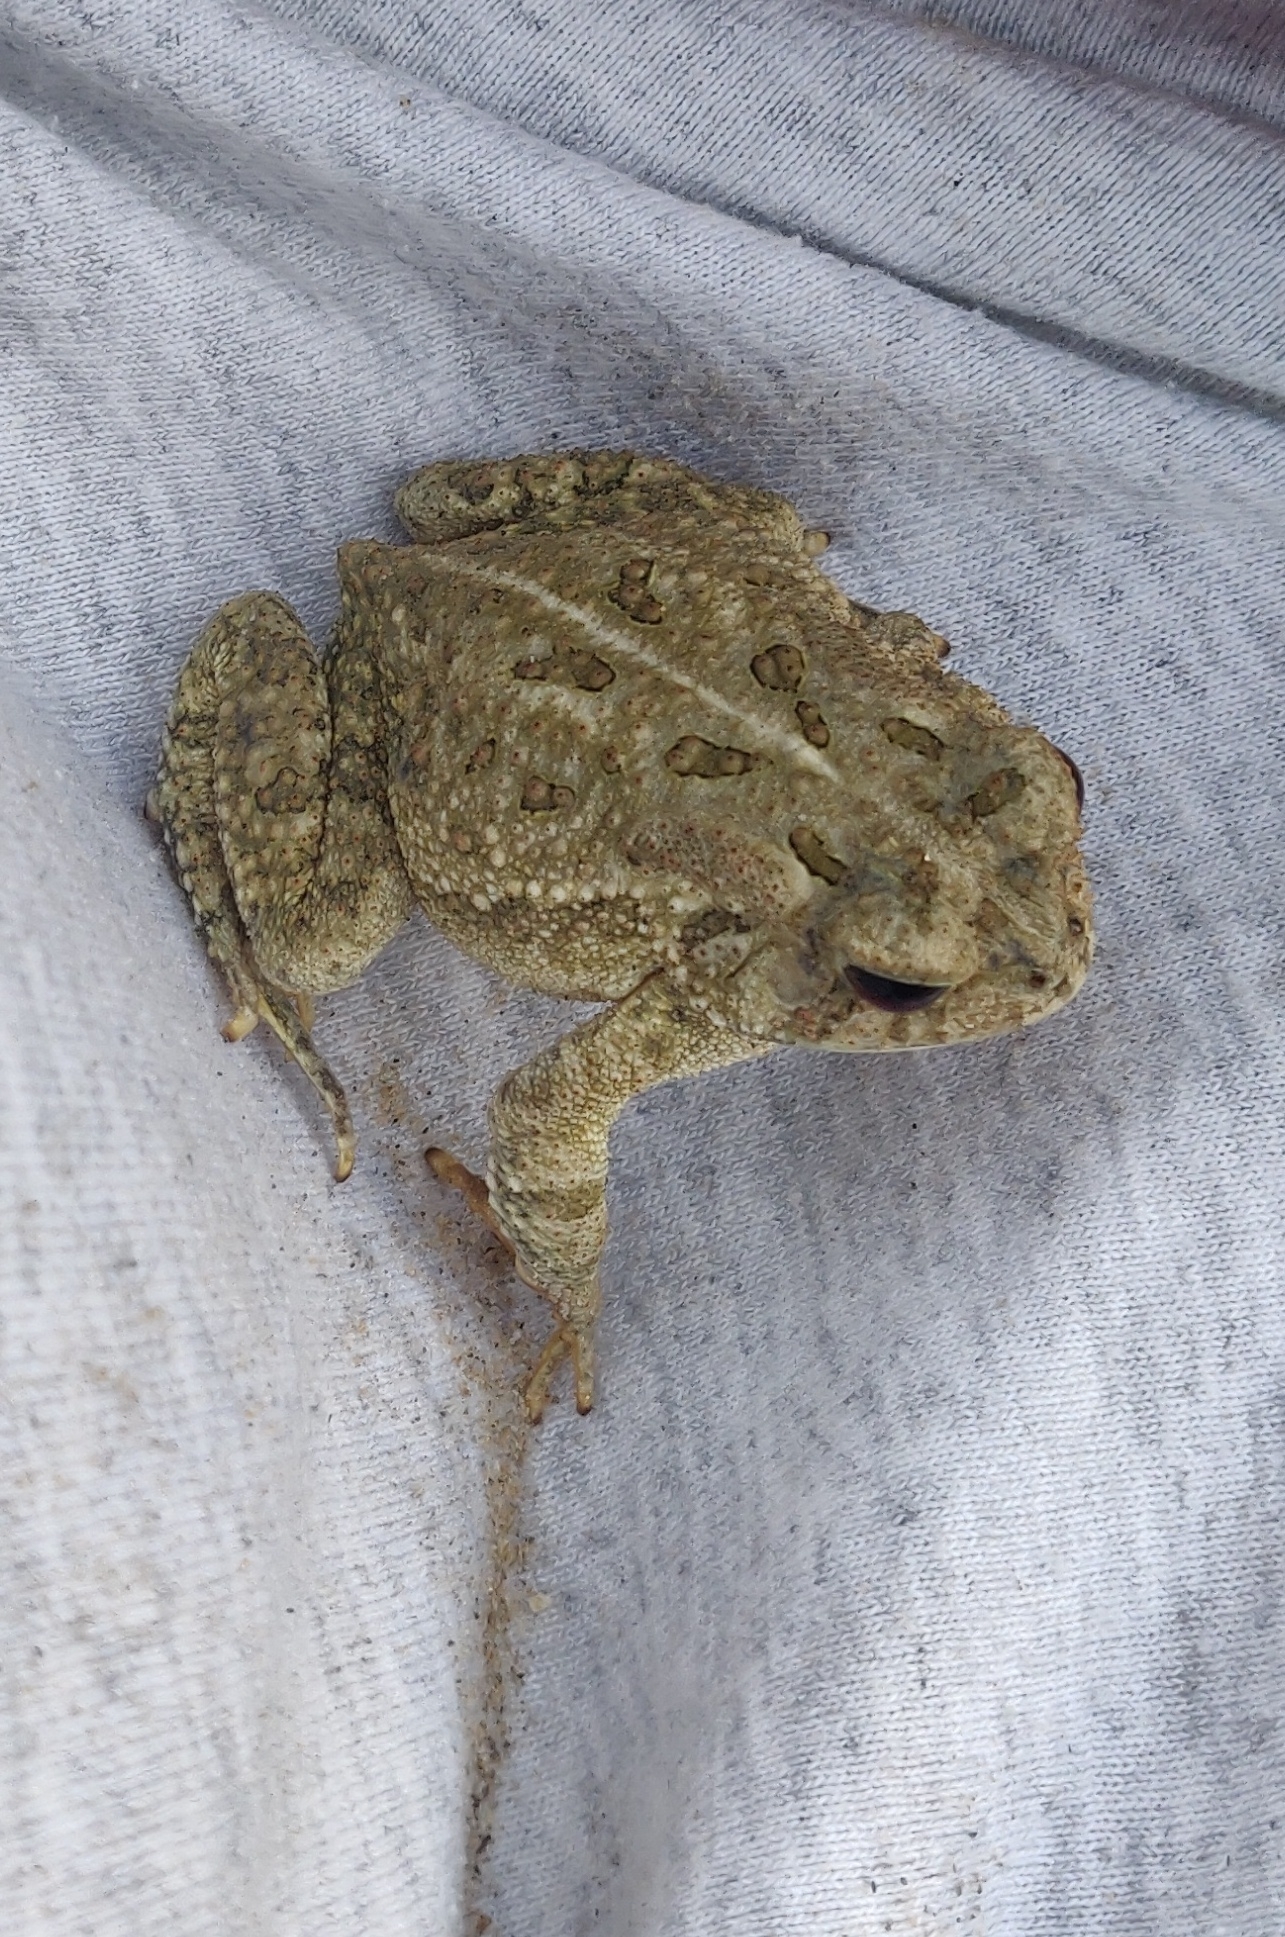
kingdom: Animalia
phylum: Chordata
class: Amphibia
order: Anura
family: Bufonidae
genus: Anaxyrus
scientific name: Anaxyrus fowleri
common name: Fowler's toad
